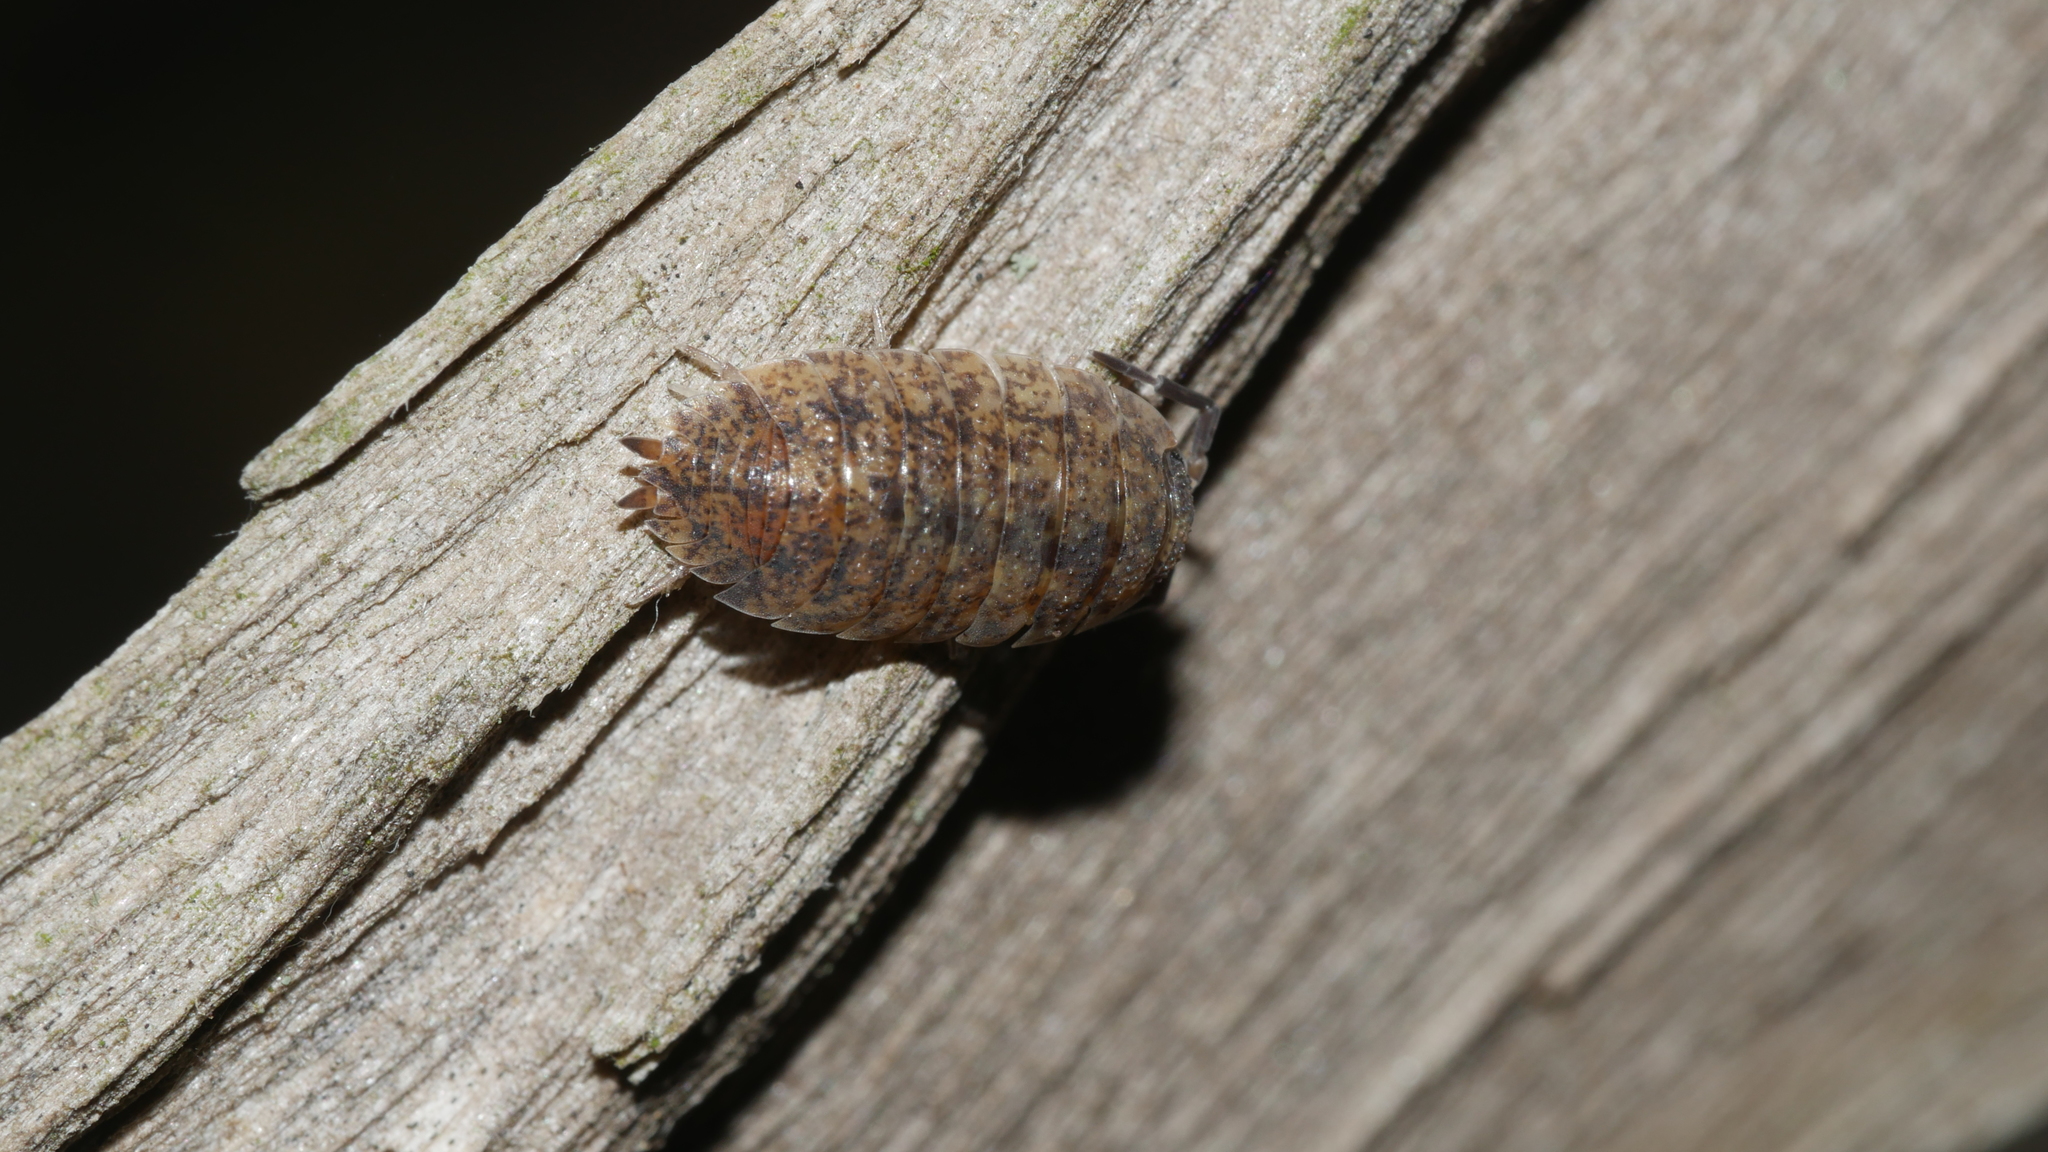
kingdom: Animalia
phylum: Arthropoda
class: Malacostraca
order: Isopoda
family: Porcellionidae
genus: Porcellio
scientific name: Porcellio scaber
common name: Common rough woodlouse
